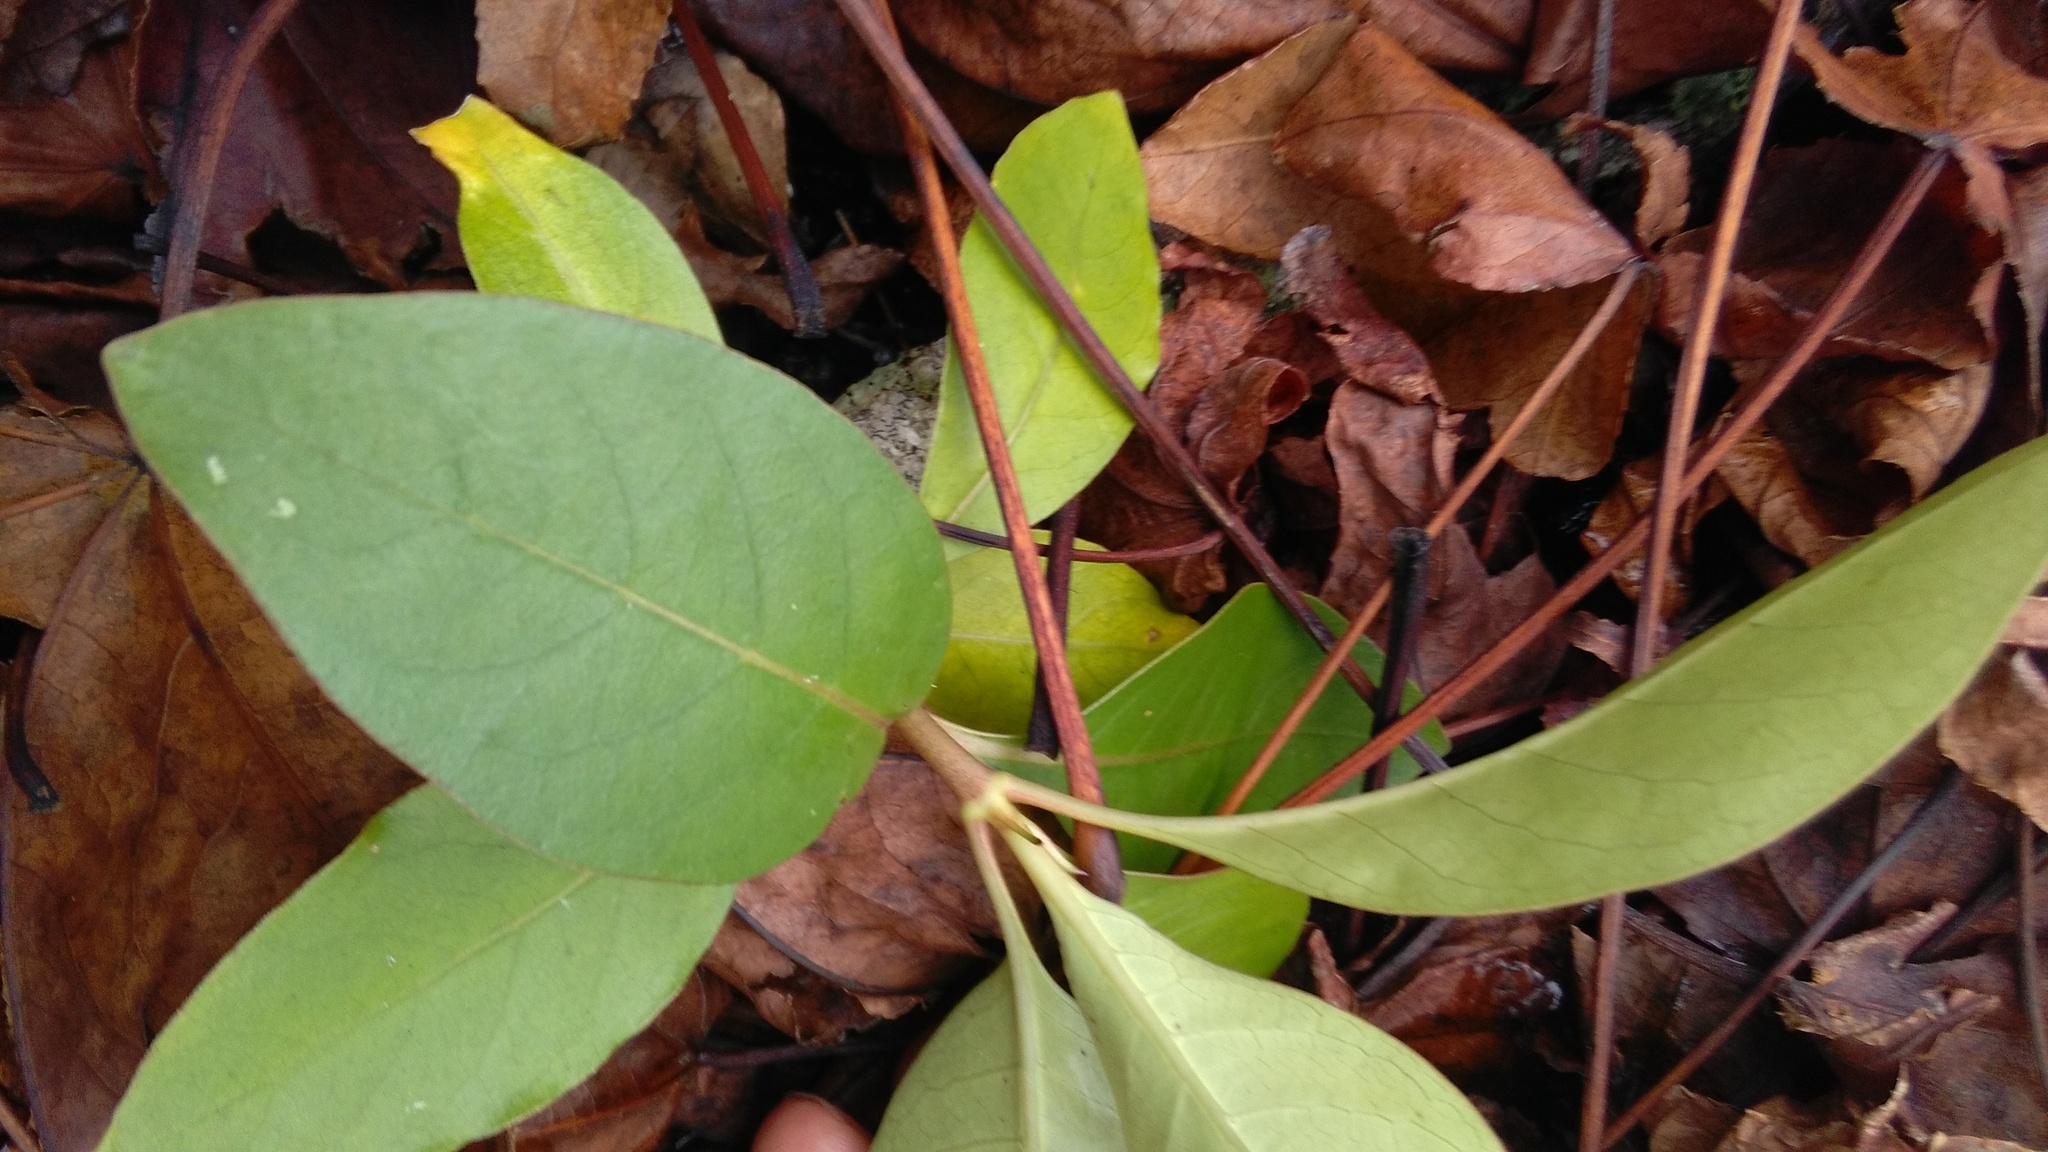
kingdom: Plantae
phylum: Tracheophyta
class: Magnoliopsida
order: Gentianales
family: Rubiaceae
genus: Coprosma
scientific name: Coprosma robusta
